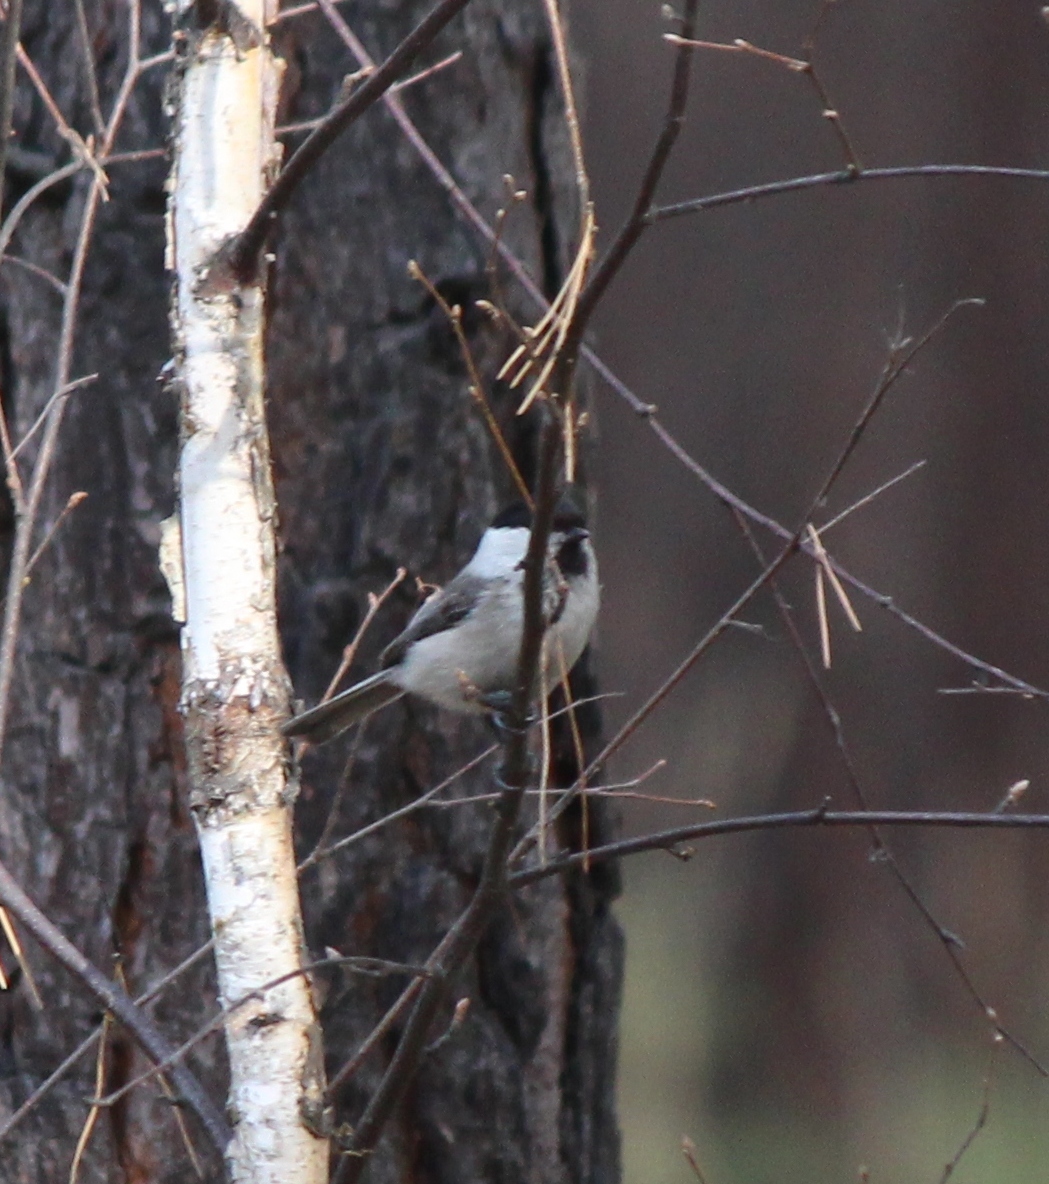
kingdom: Animalia
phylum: Chordata
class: Aves
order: Passeriformes
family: Paridae
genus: Poecile
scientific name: Poecile montanus
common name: Willow tit
